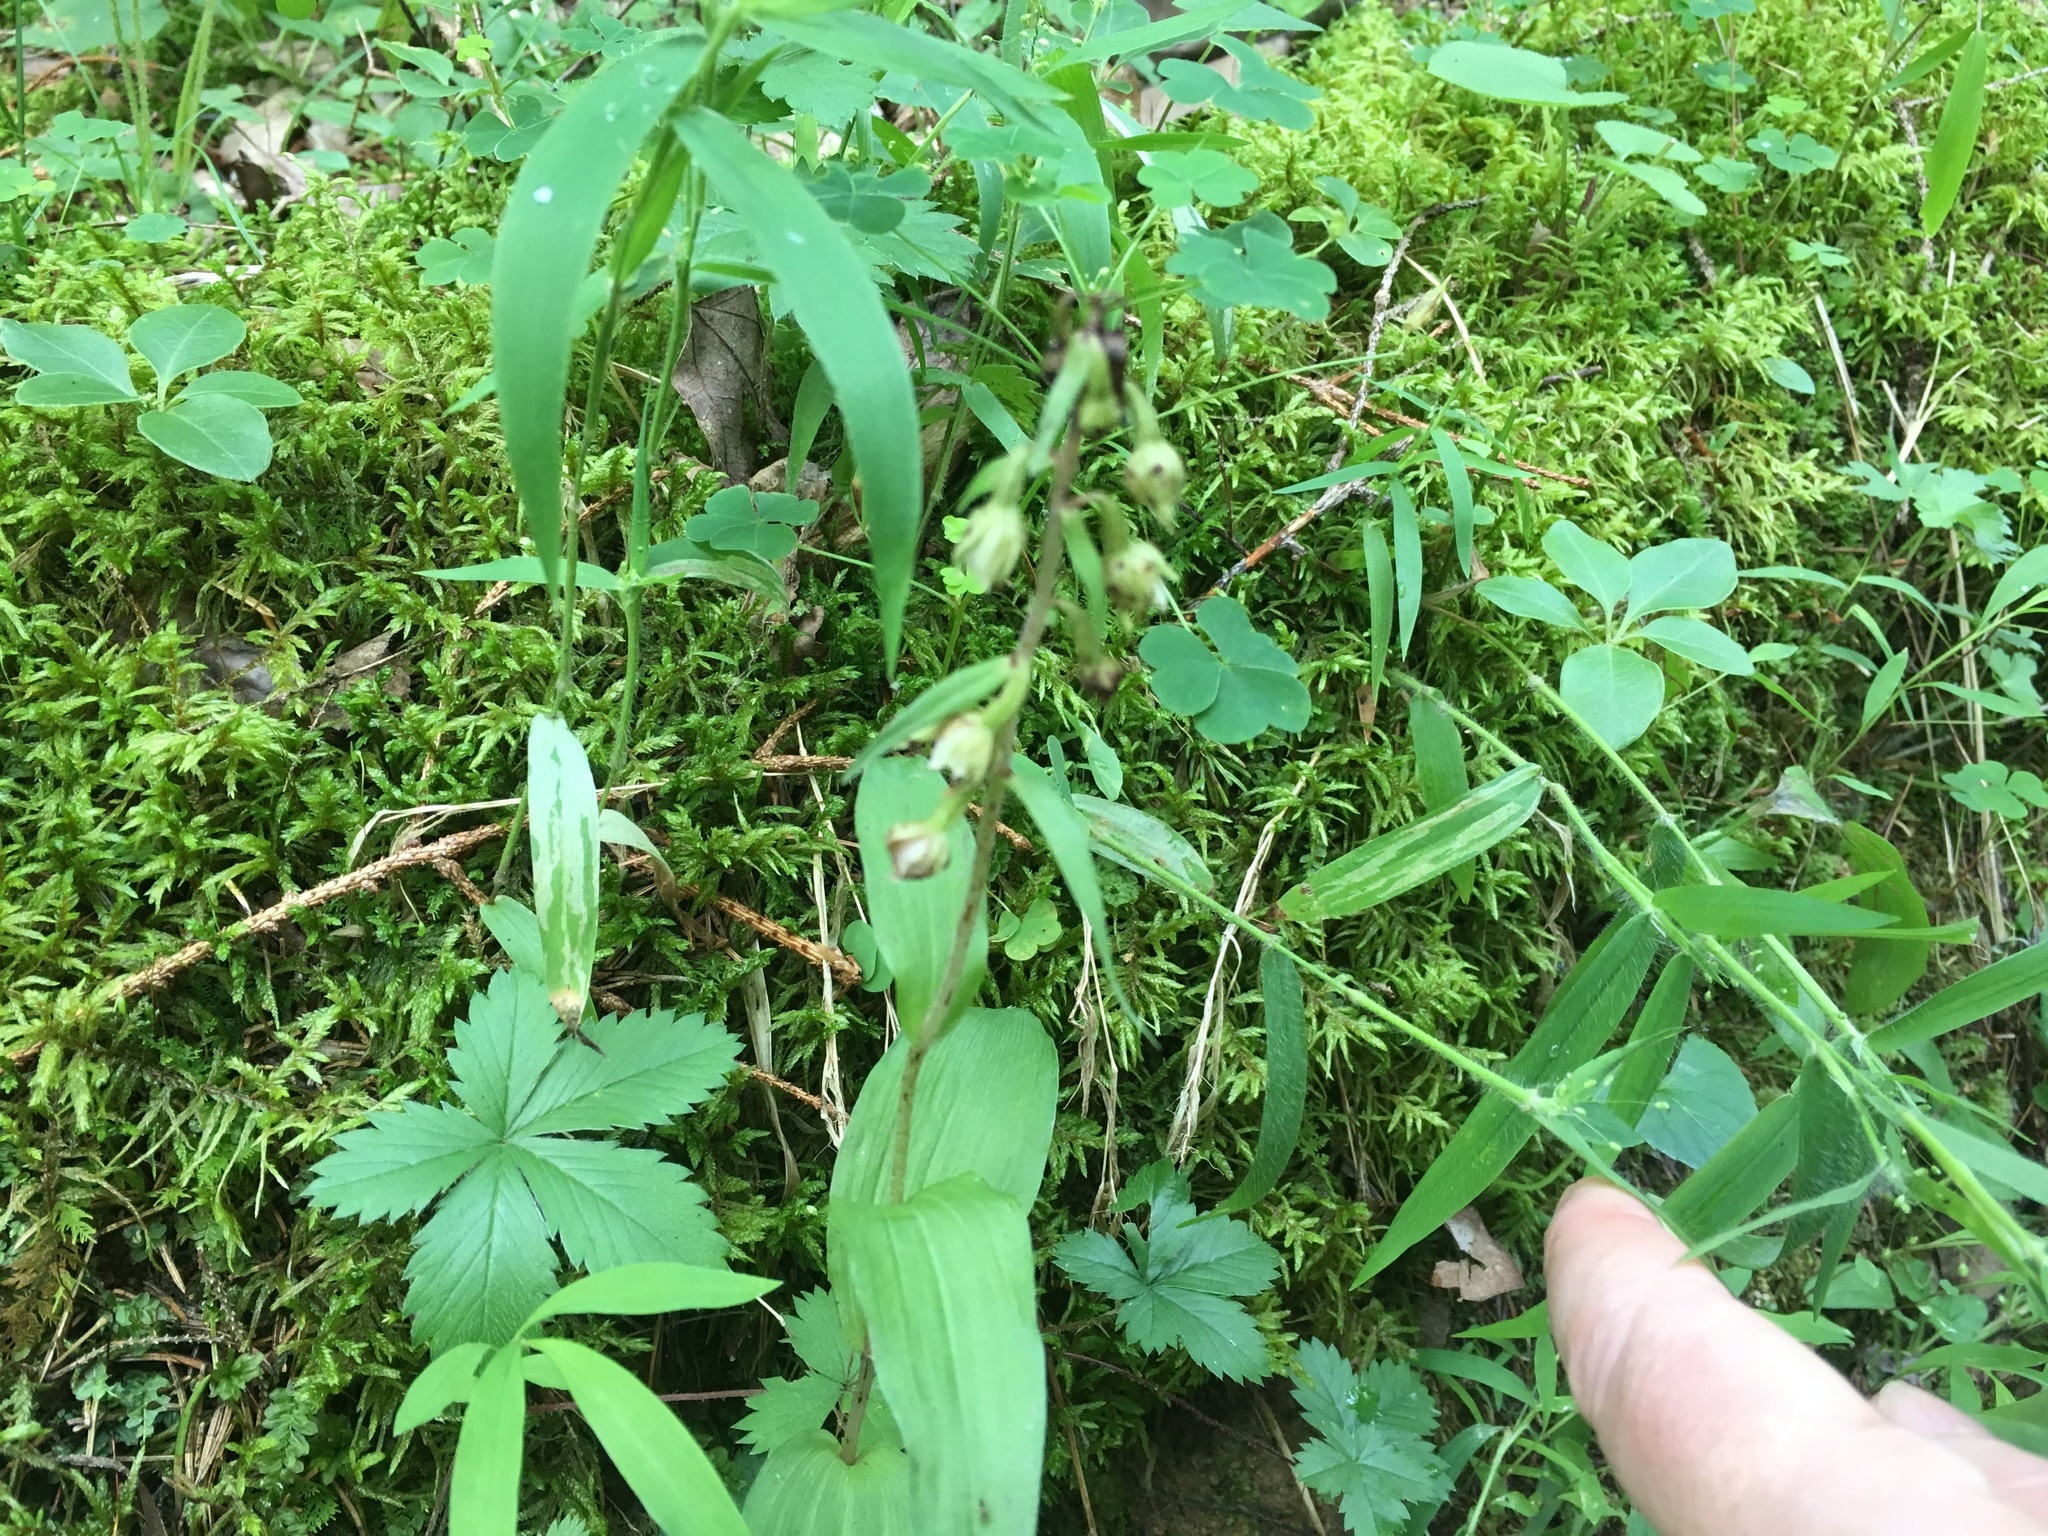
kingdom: Plantae
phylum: Tracheophyta
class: Liliopsida
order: Asparagales
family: Orchidaceae
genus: Epipactis
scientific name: Epipactis helleborine
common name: Broad-leaved helleborine
